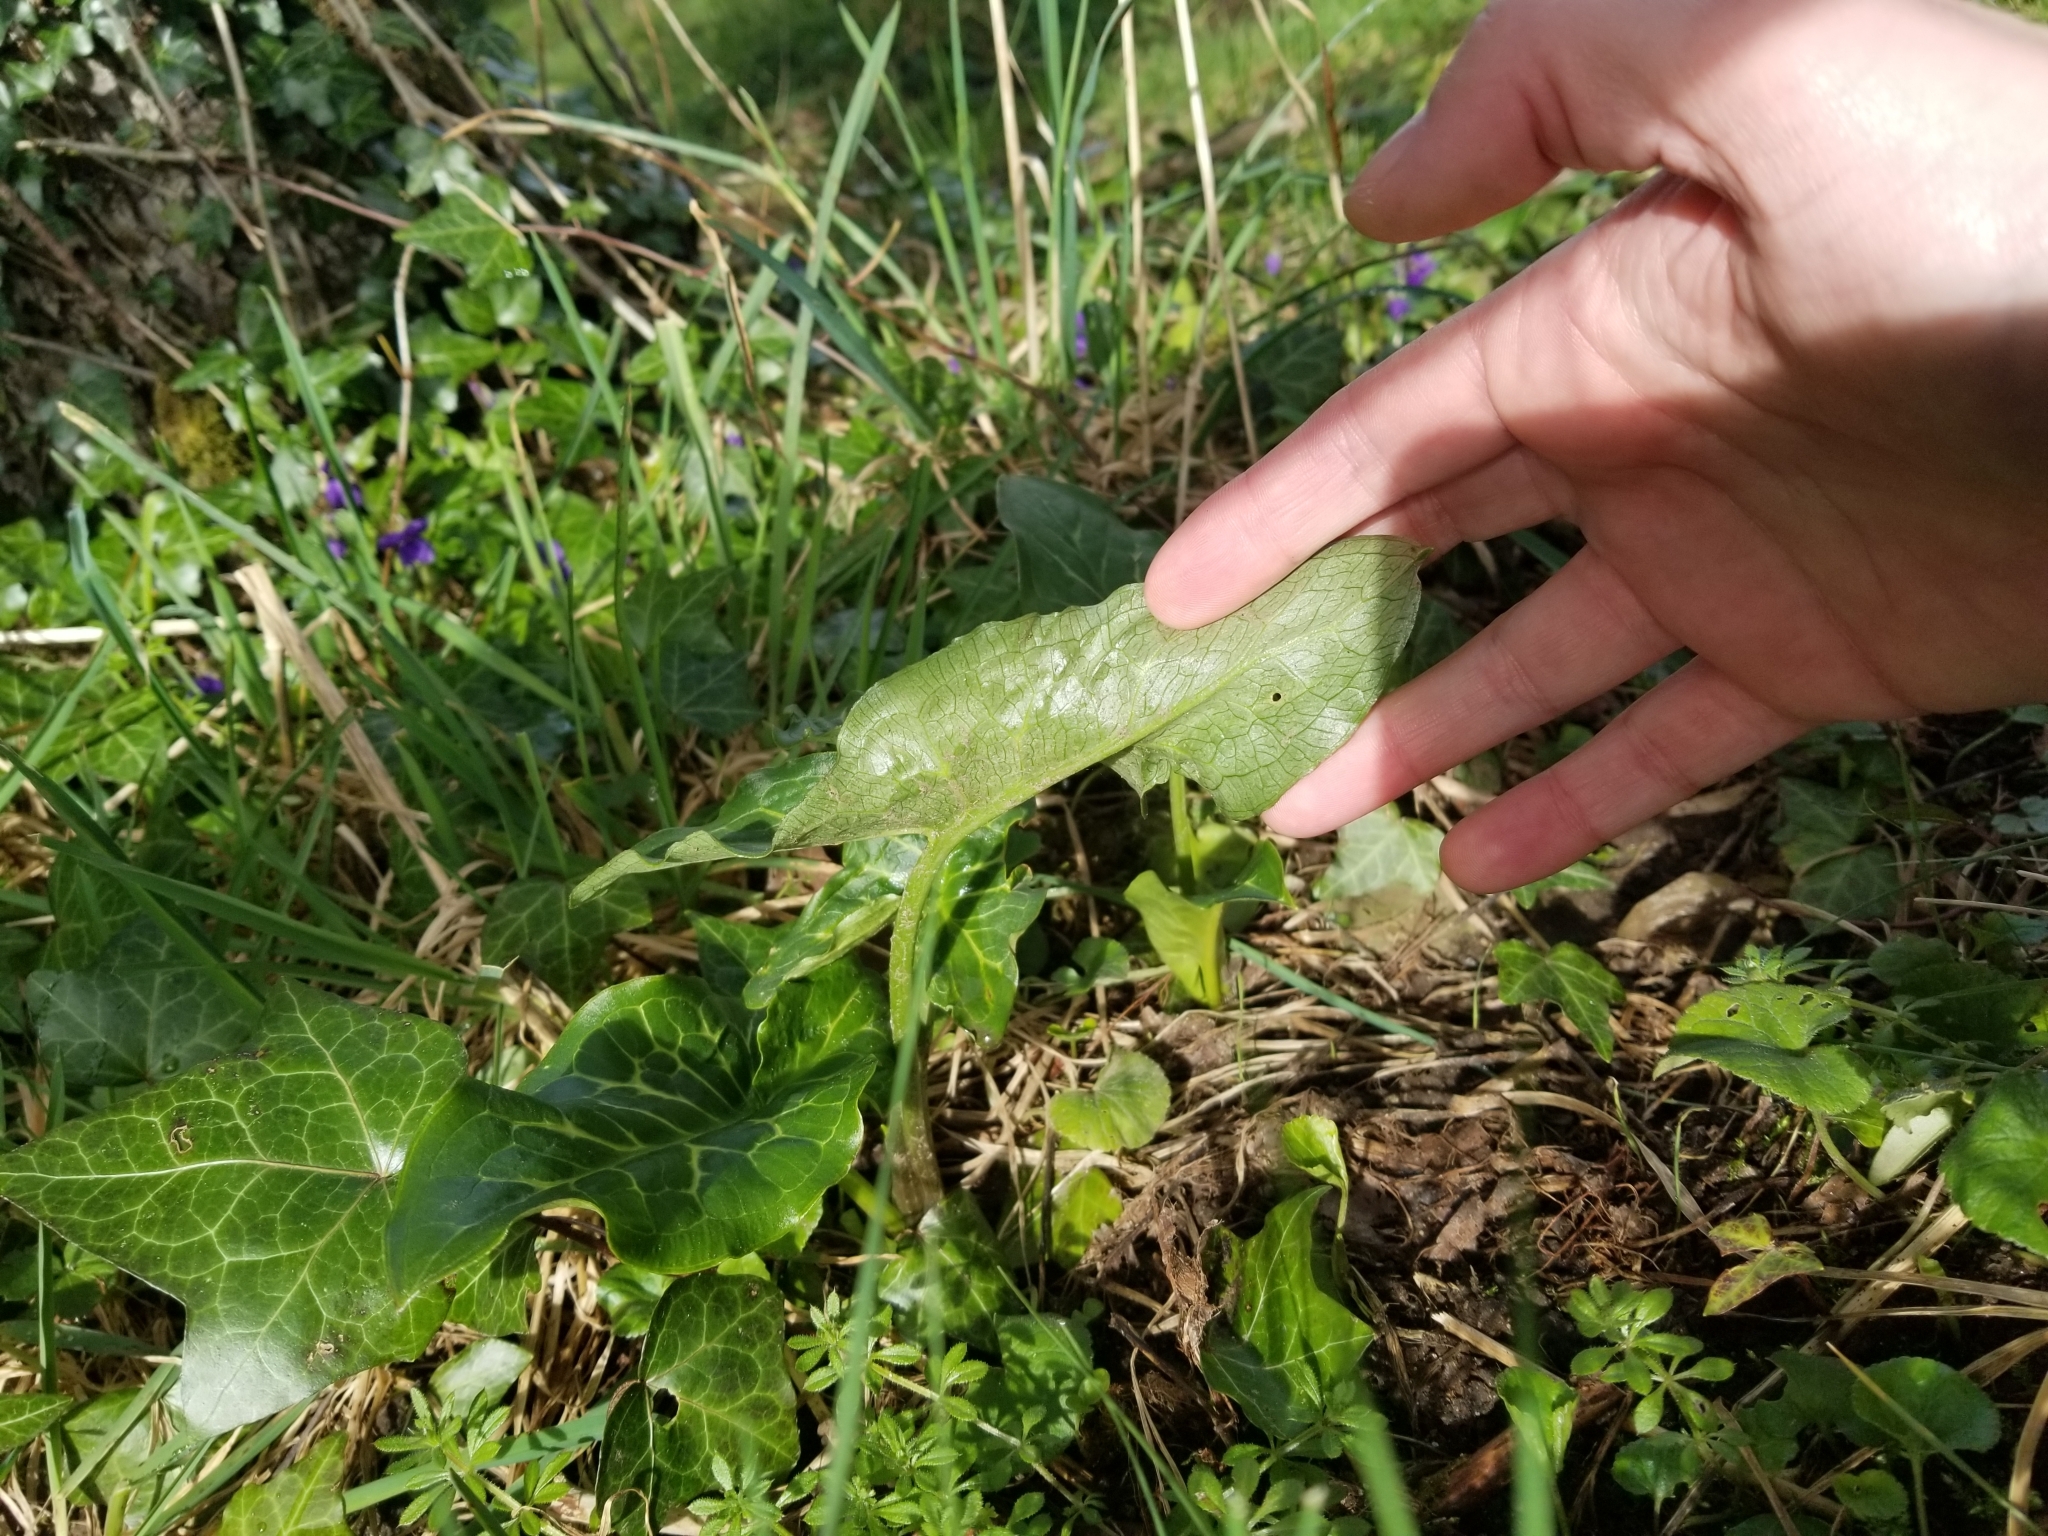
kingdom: Plantae
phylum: Tracheophyta
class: Liliopsida
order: Alismatales
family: Araceae
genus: Arum
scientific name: Arum italicum
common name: Italian lords-and-ladies
